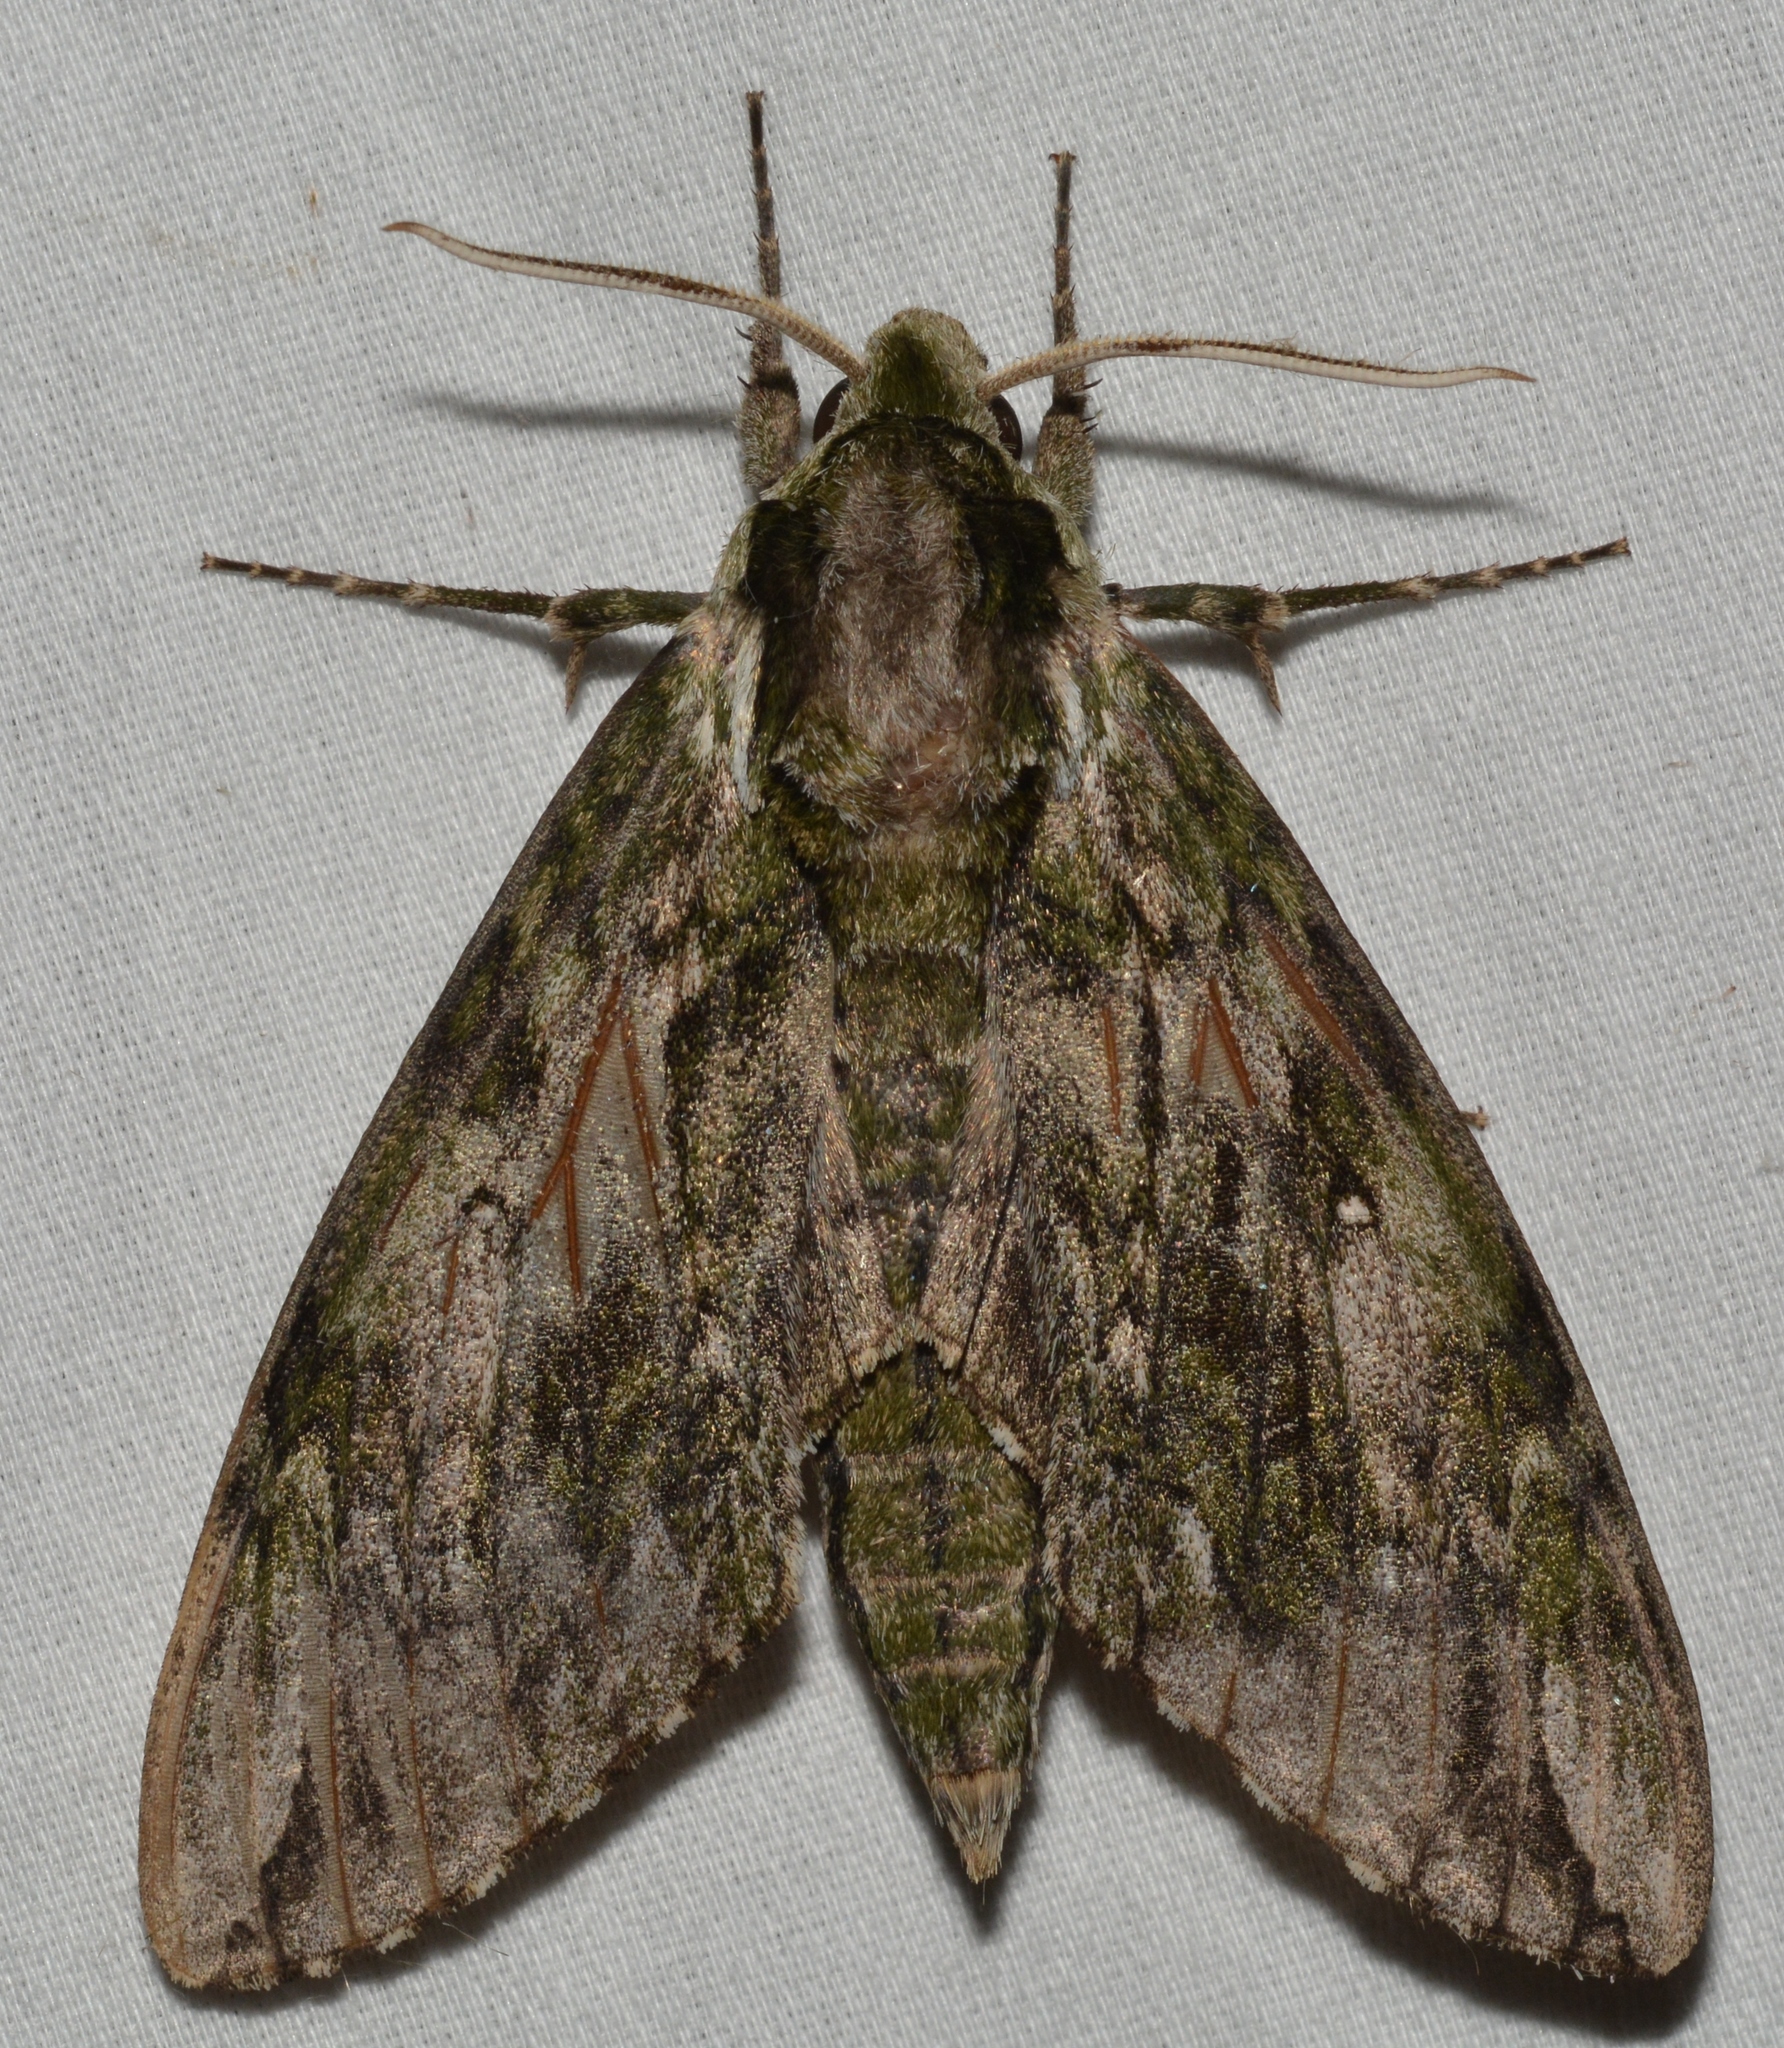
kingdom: Animalia
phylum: Arthropoda
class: Insecta
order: Lepidoptera
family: Sphingidae
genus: Ceratomia
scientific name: Ceratomia hageni
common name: Hagen's sphinx
